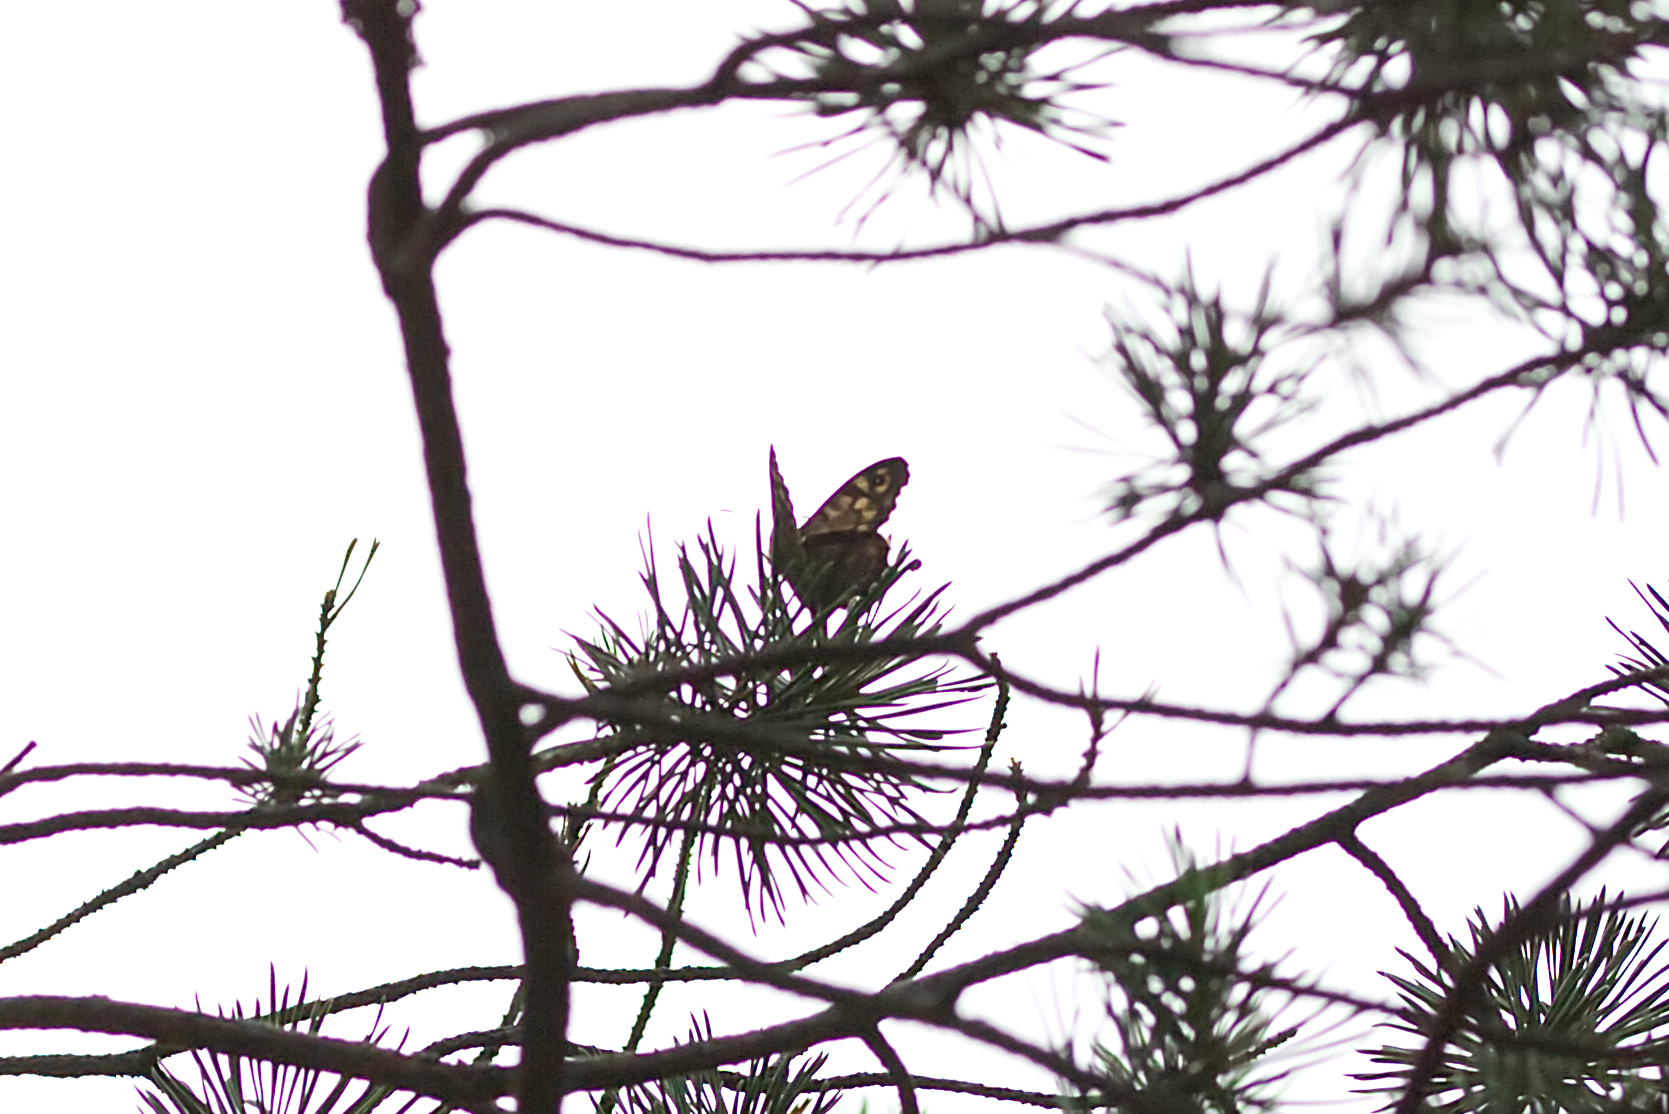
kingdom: Animalia
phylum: Arthropoda
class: Insecta
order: Lepidoptera
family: Nymphalidae
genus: Pararge
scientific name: Pararge aegeria
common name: Speckled wood
